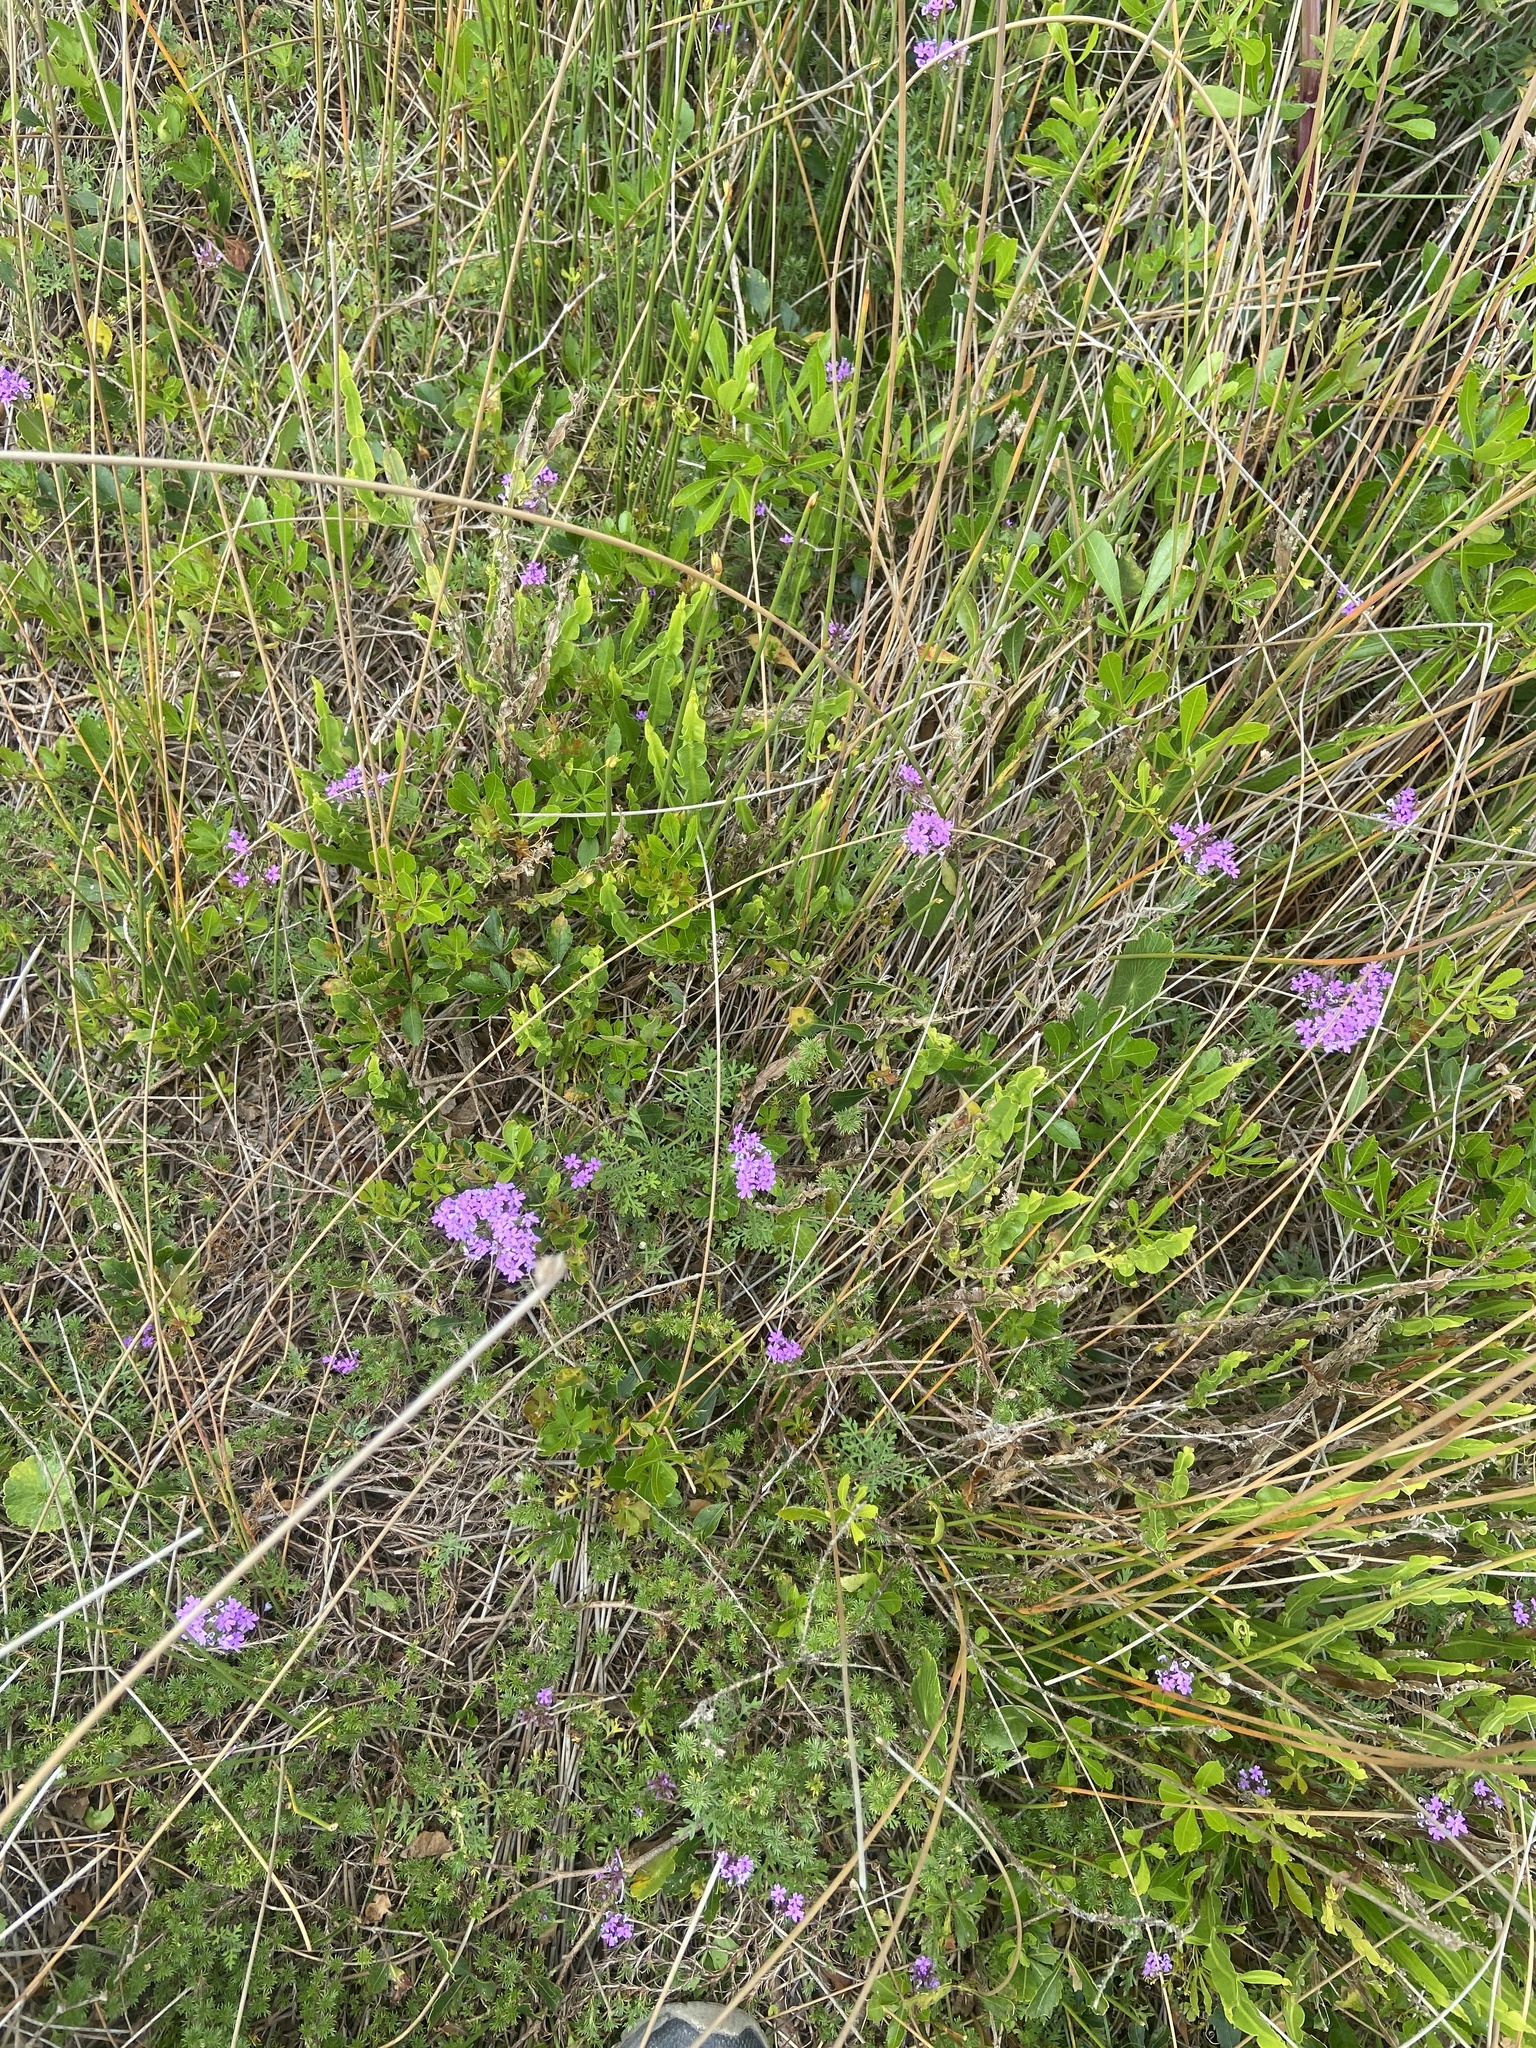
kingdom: Plantae
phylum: Tracheophyta
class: Magnoliopsida
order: Lamiales
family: Verbenaceae
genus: Verbena
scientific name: Verbena selloi
